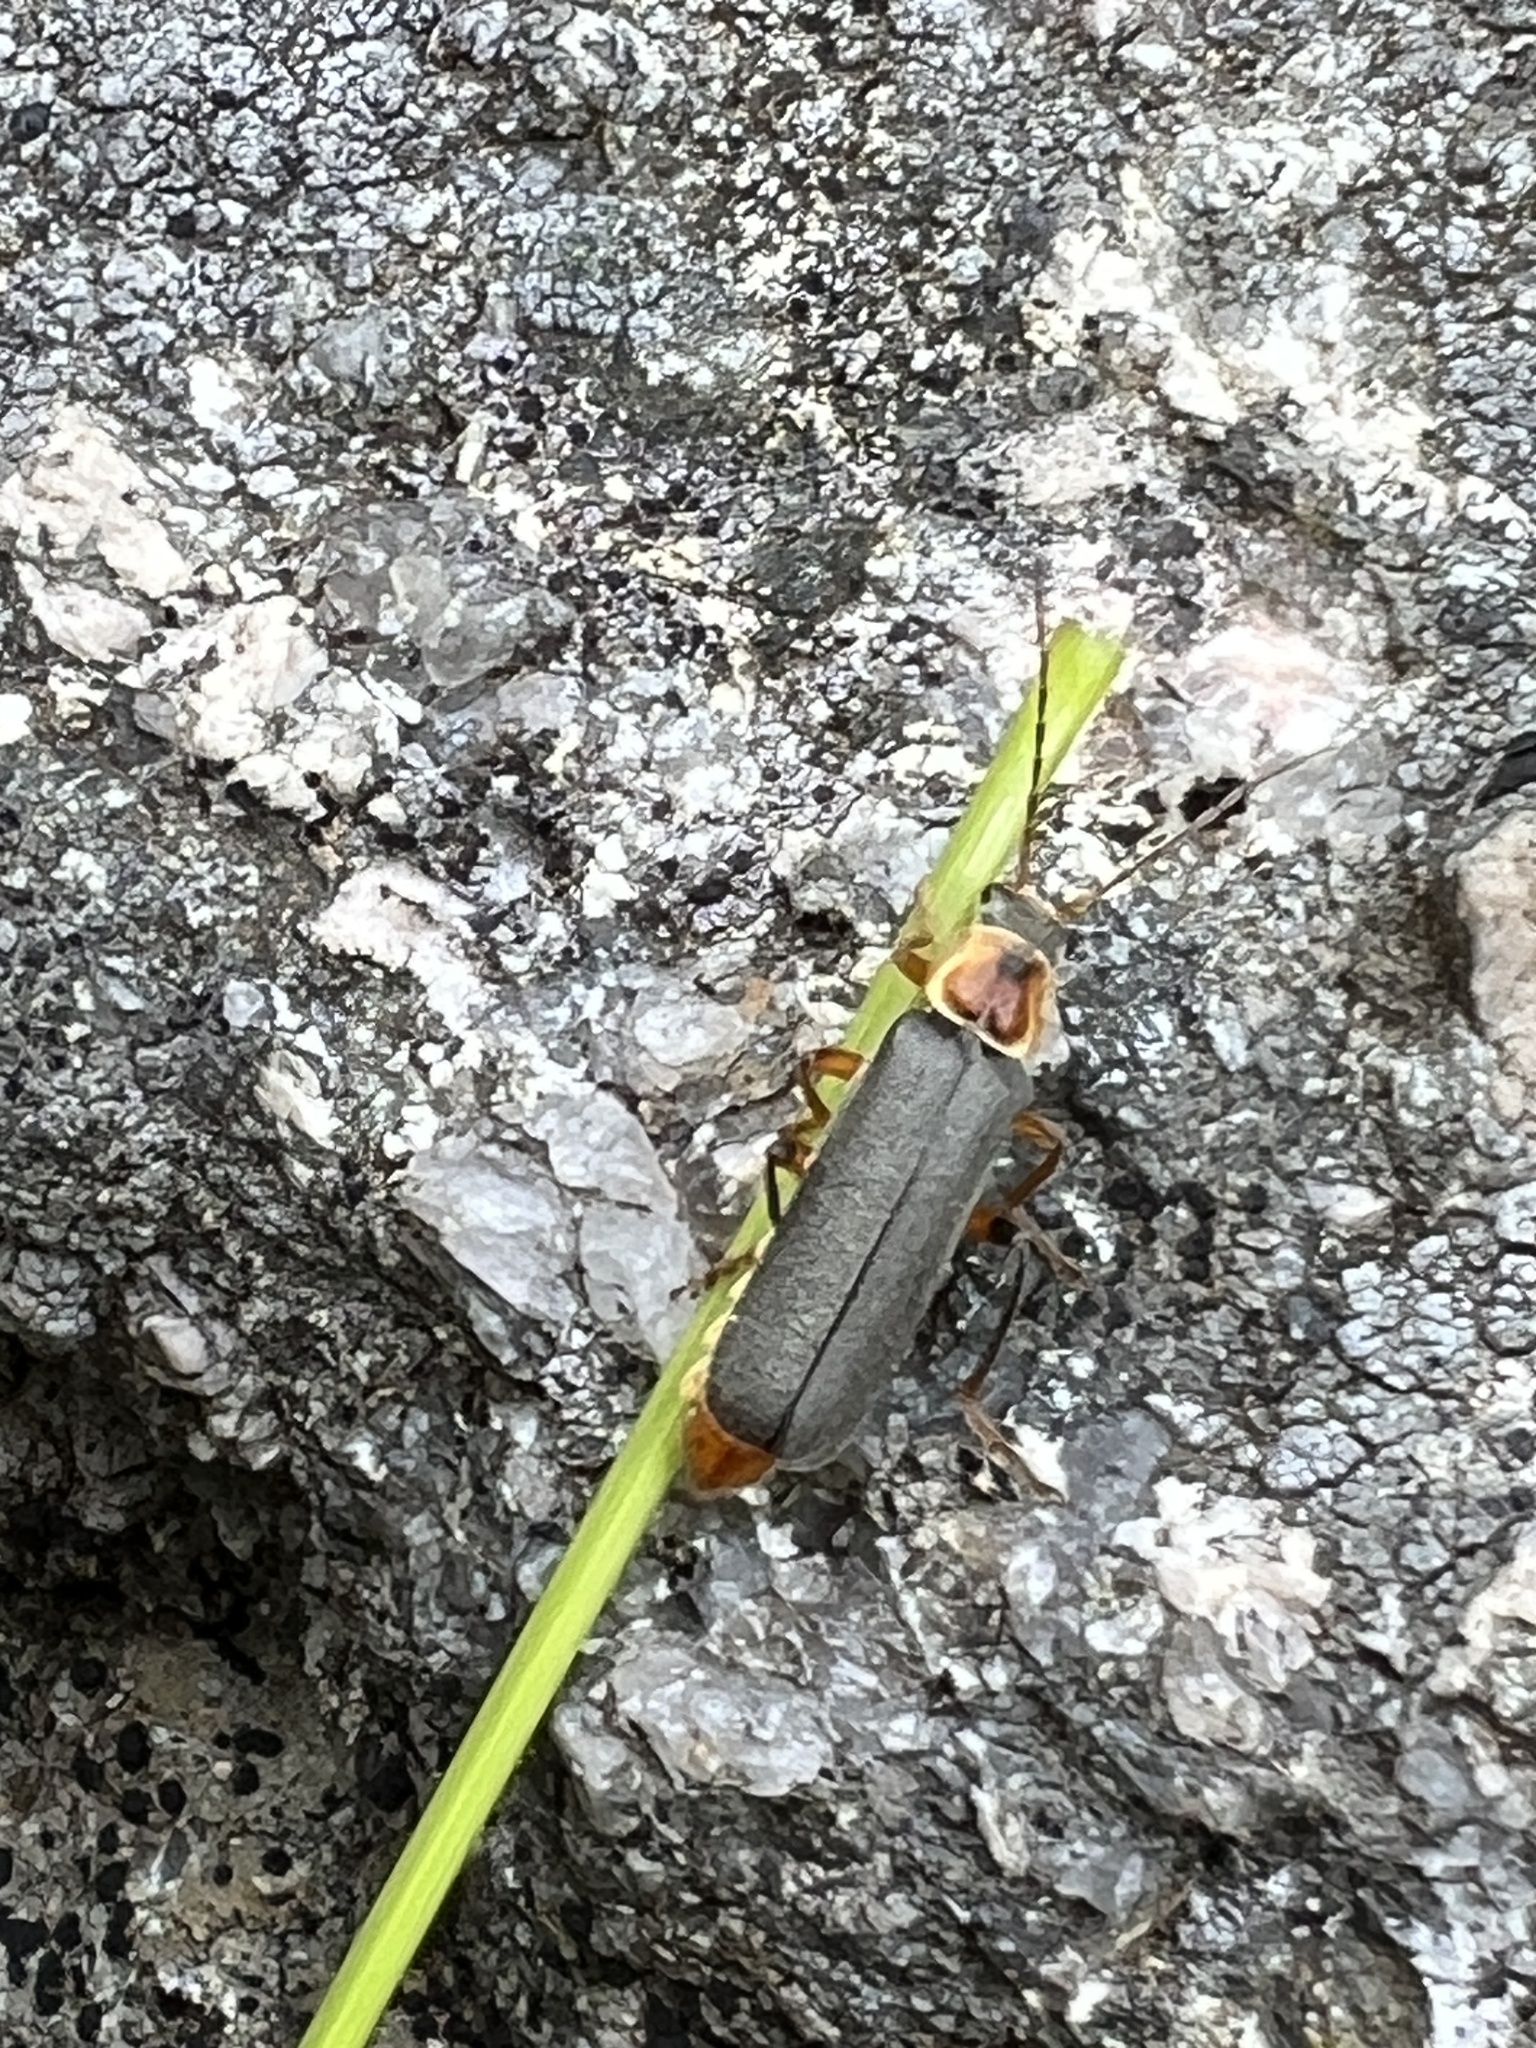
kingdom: Animalia
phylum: Arthropoda
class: Insecta
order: Coleoptera
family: Cantharidae
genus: Cantharis
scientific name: Cantharis nigricans
